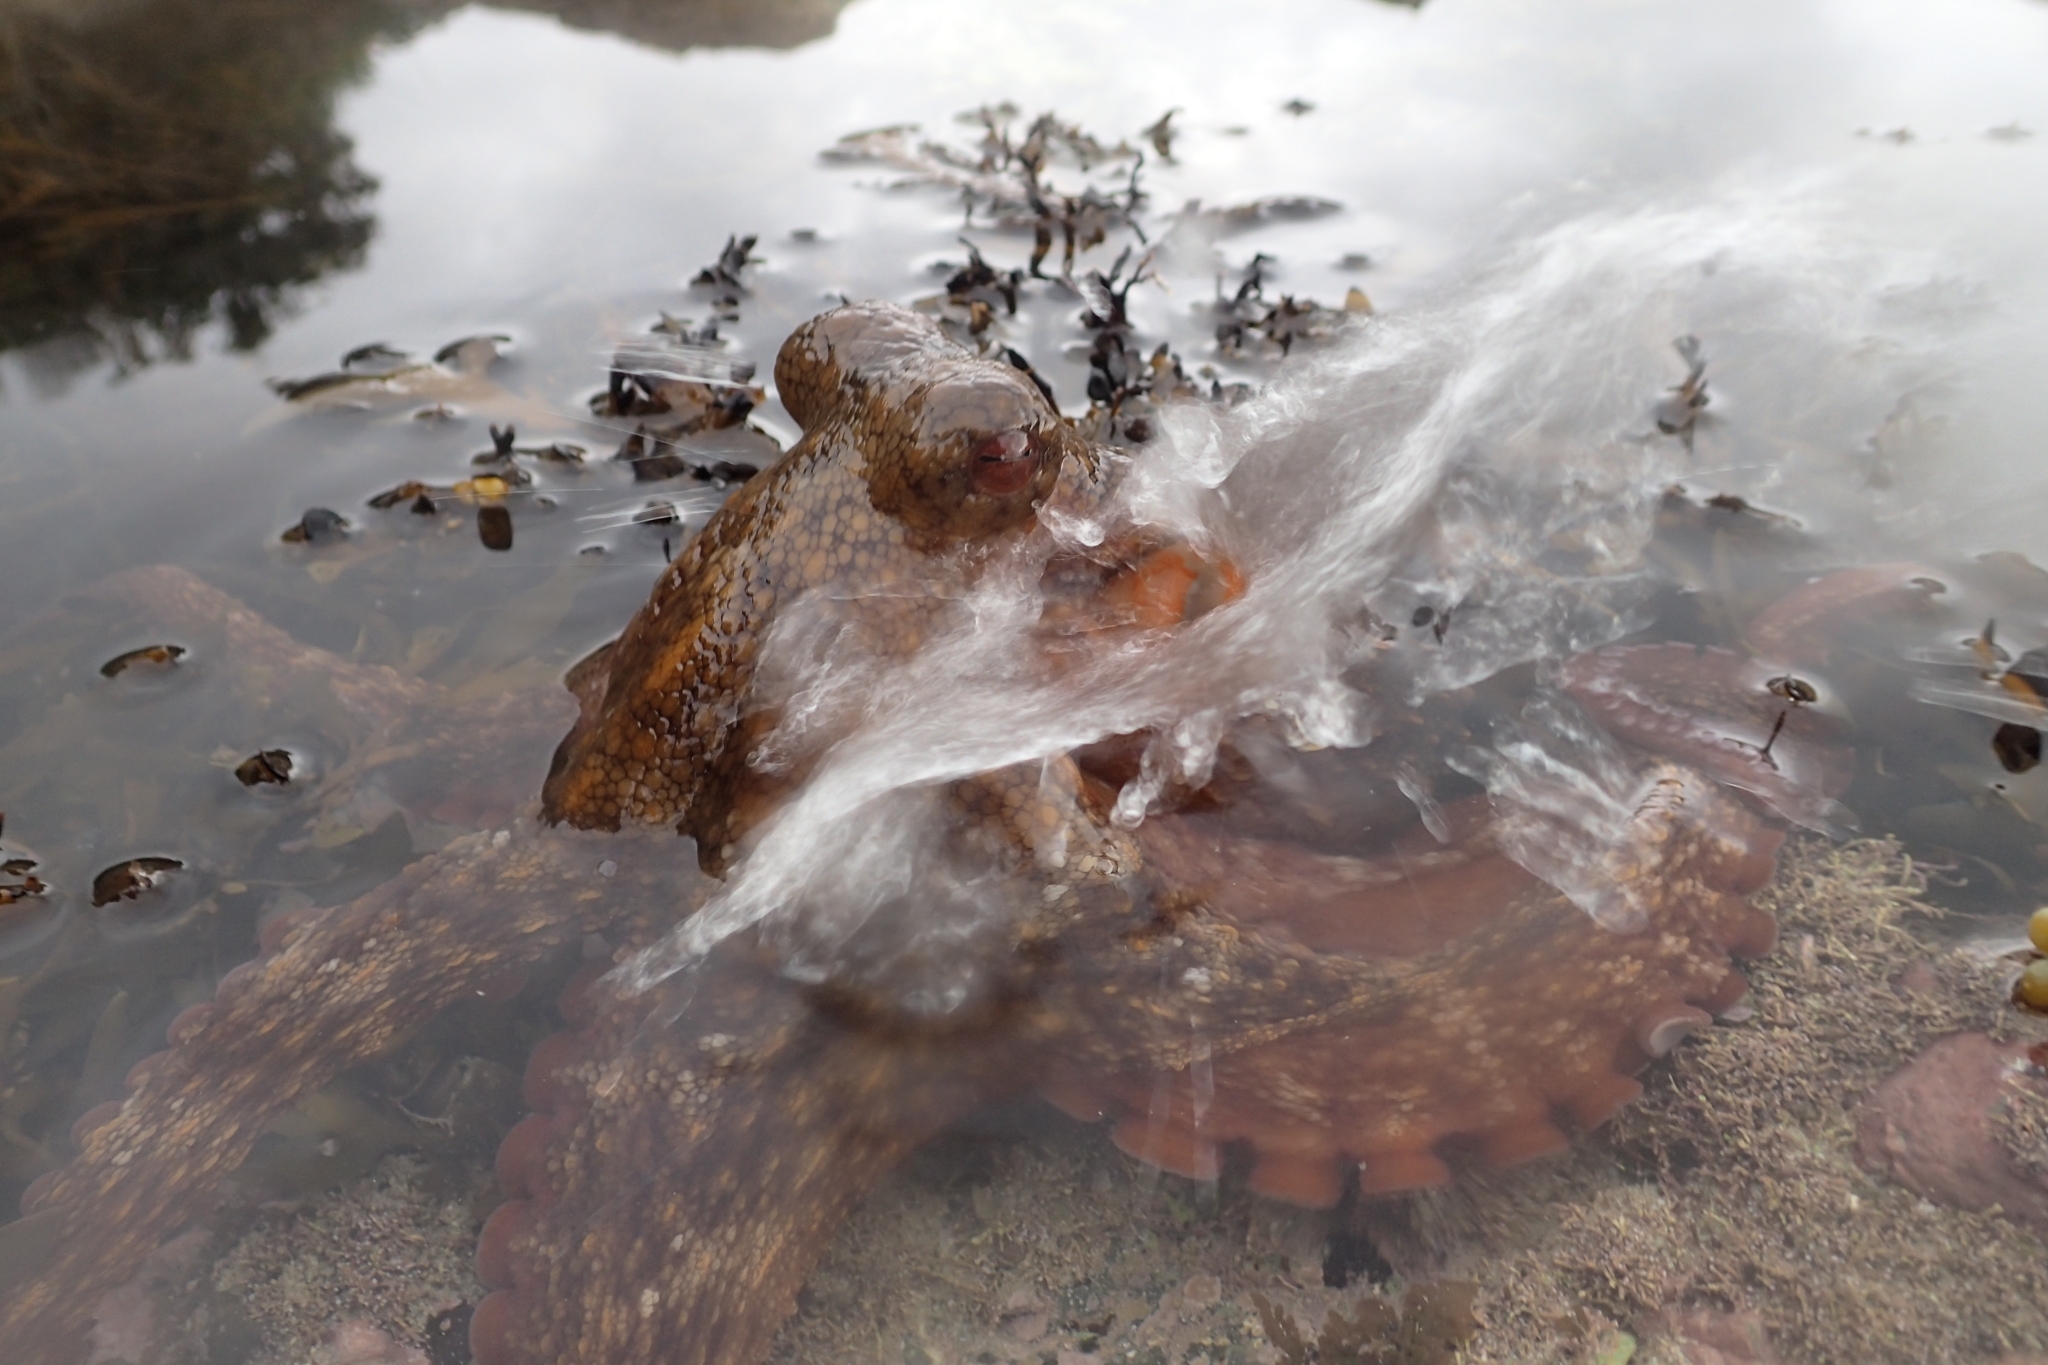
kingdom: Animalia
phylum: Mollusca
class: Cephalopoda
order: Octopoda
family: Octopodidae
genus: Octopus
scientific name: Octopus tetricus
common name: Sydney octopus
